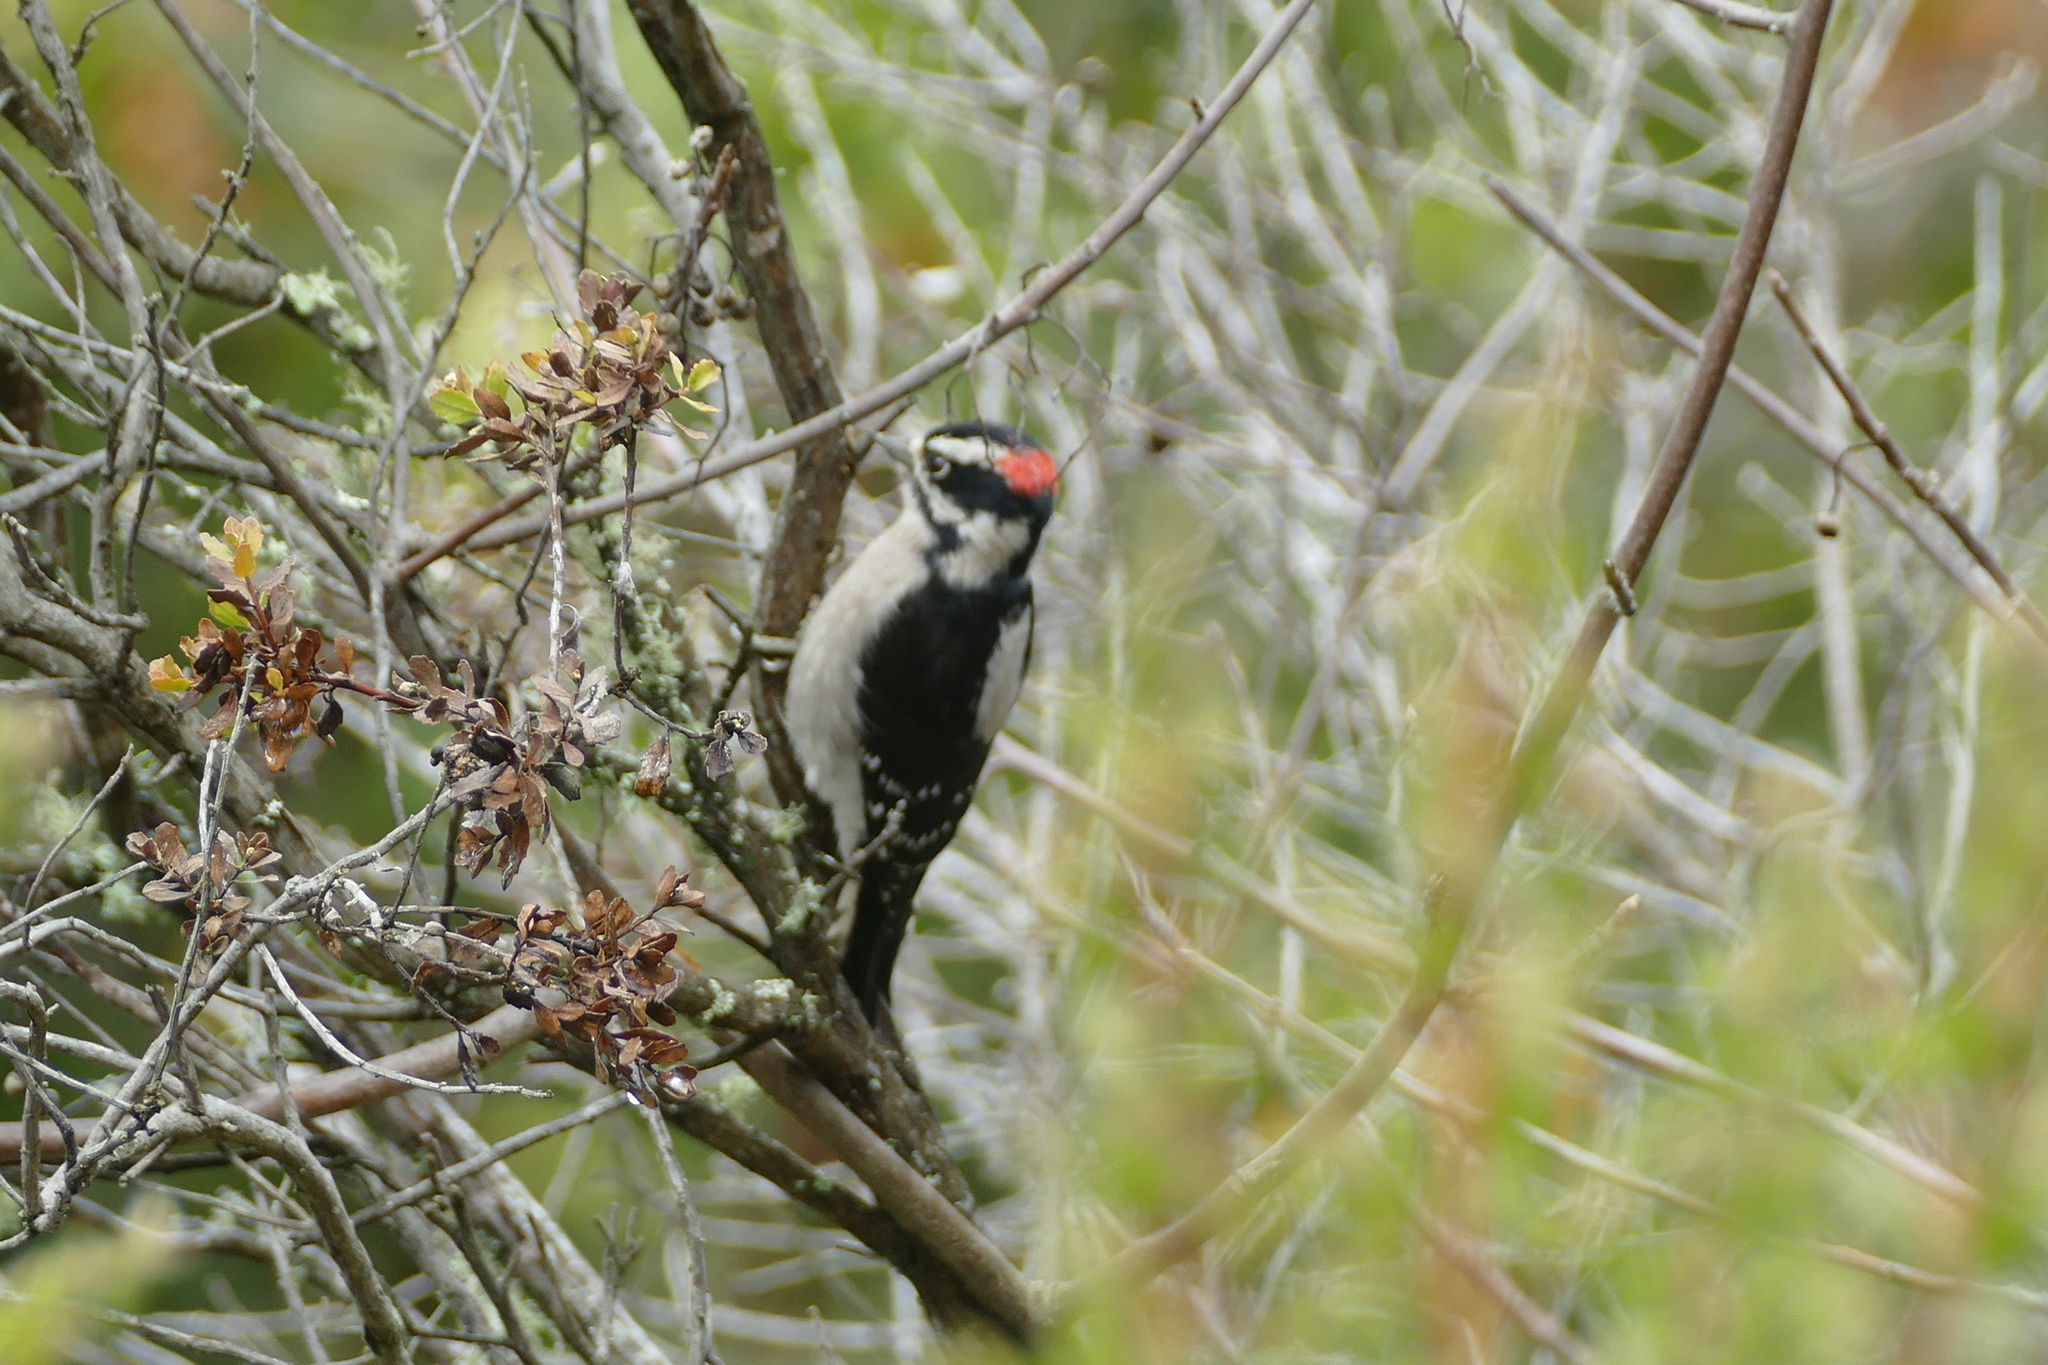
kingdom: Animalia
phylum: Chordata
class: Aves
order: Piciformes
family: Picidae
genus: Dryobates
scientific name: Dryobates pubescens
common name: Downy woodpecker
